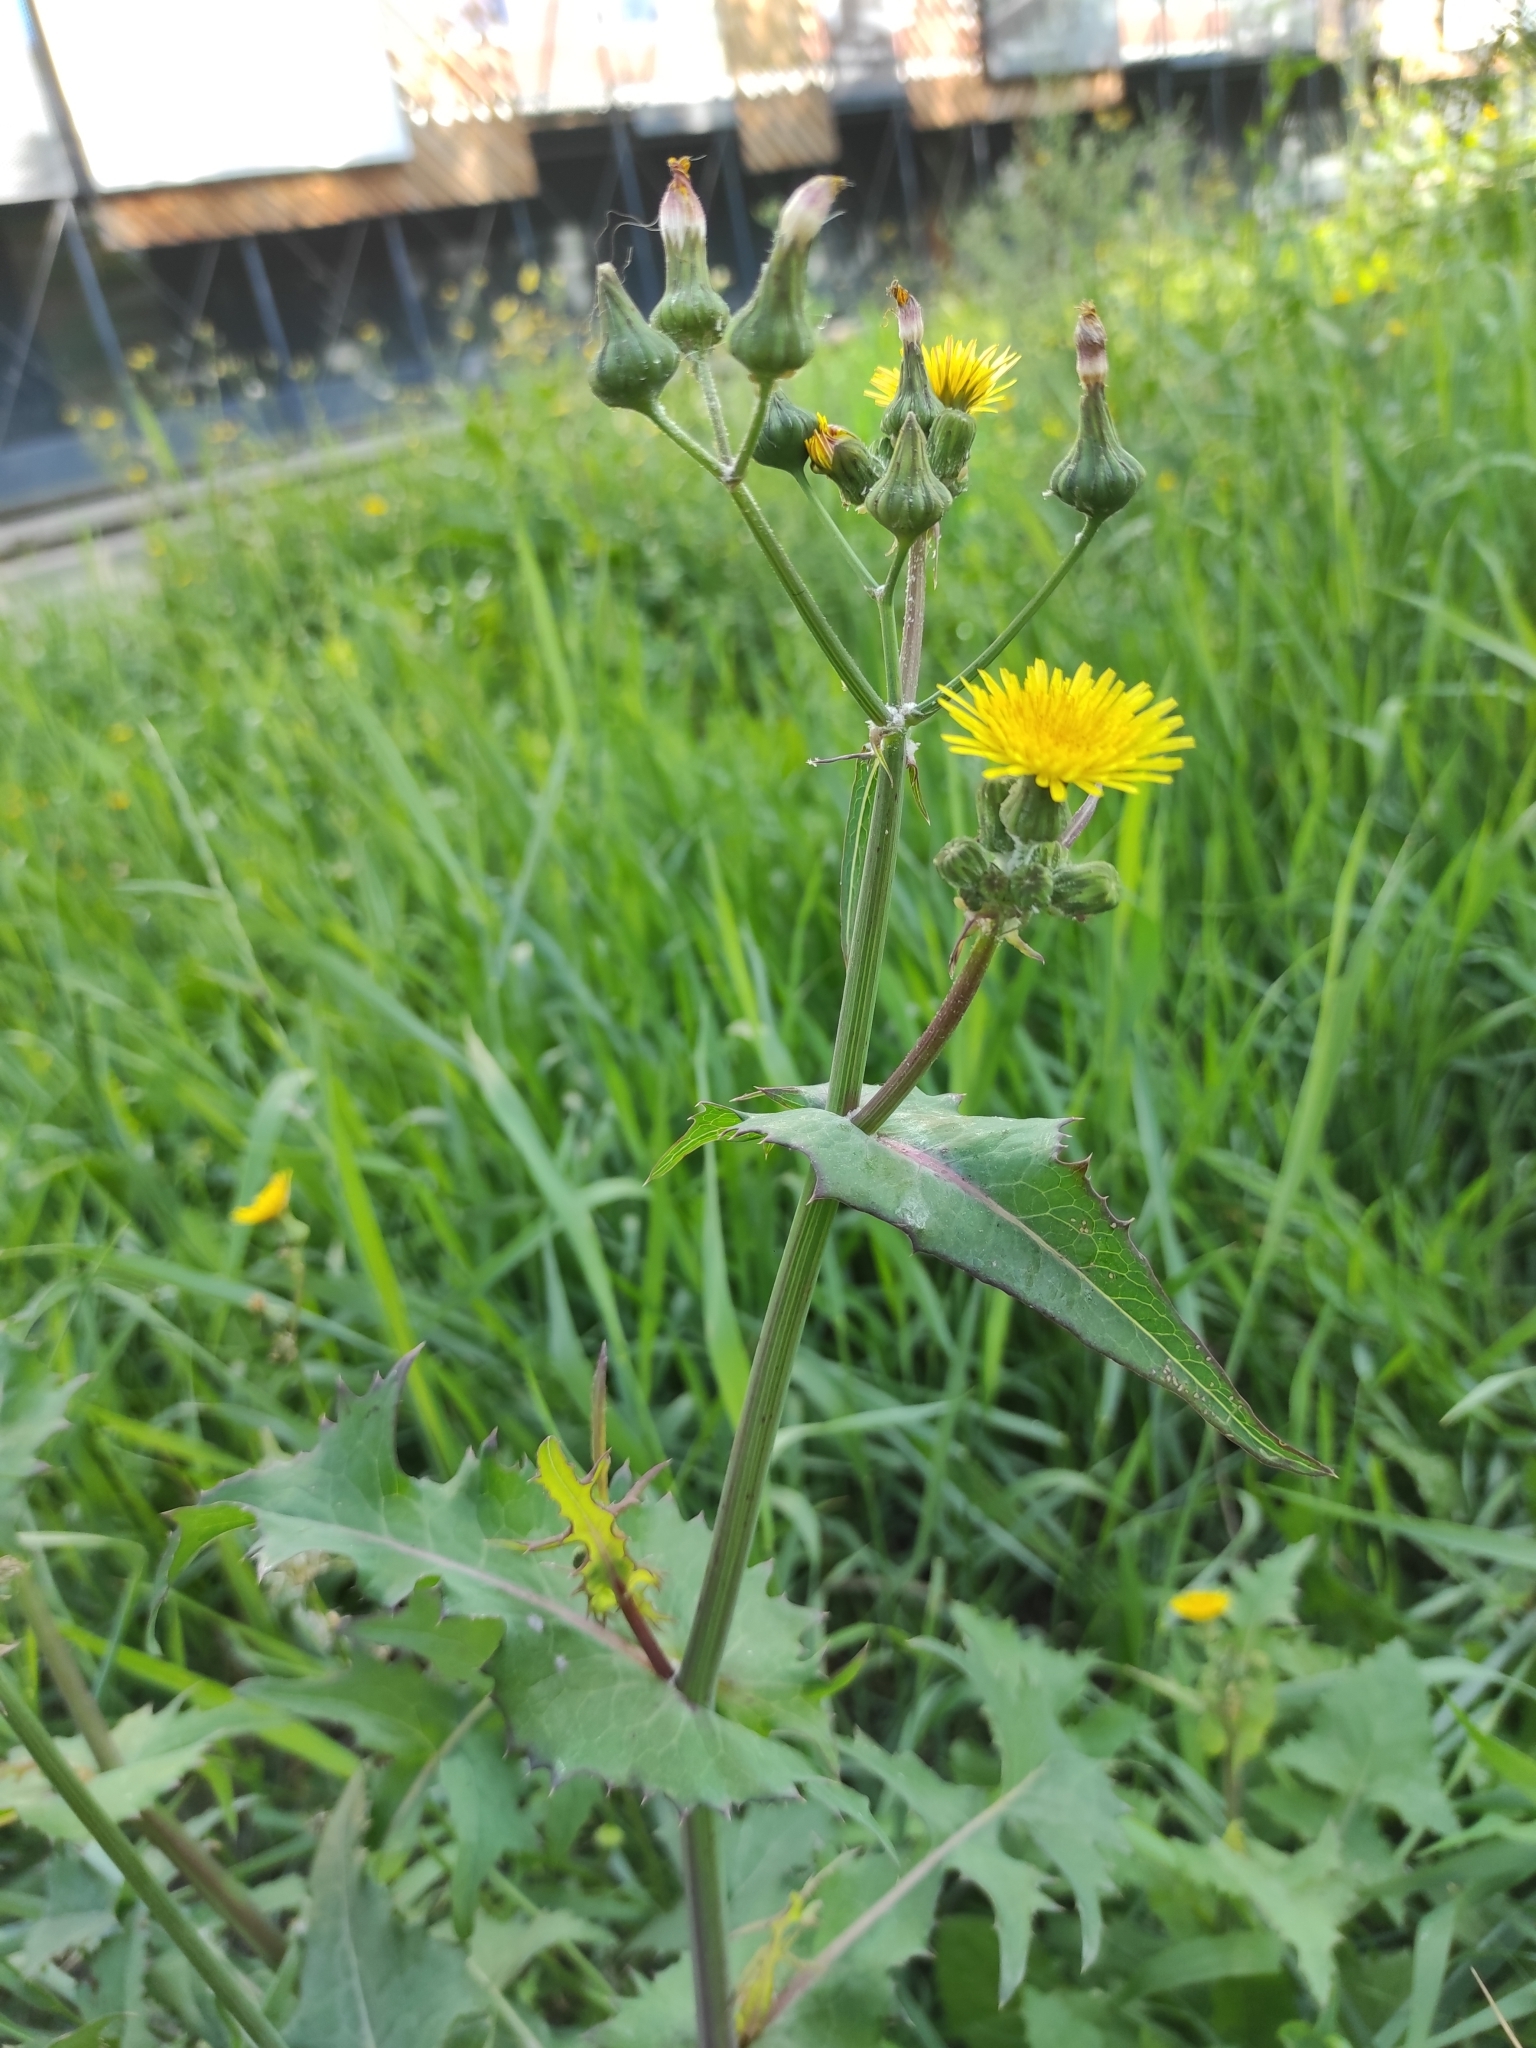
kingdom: Plantae
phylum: Tracheophyta
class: Magnoliopsida
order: Asterales
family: Asteraceae
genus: Sonchus
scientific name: Sonchus oleraceus
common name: Common sowthistle
